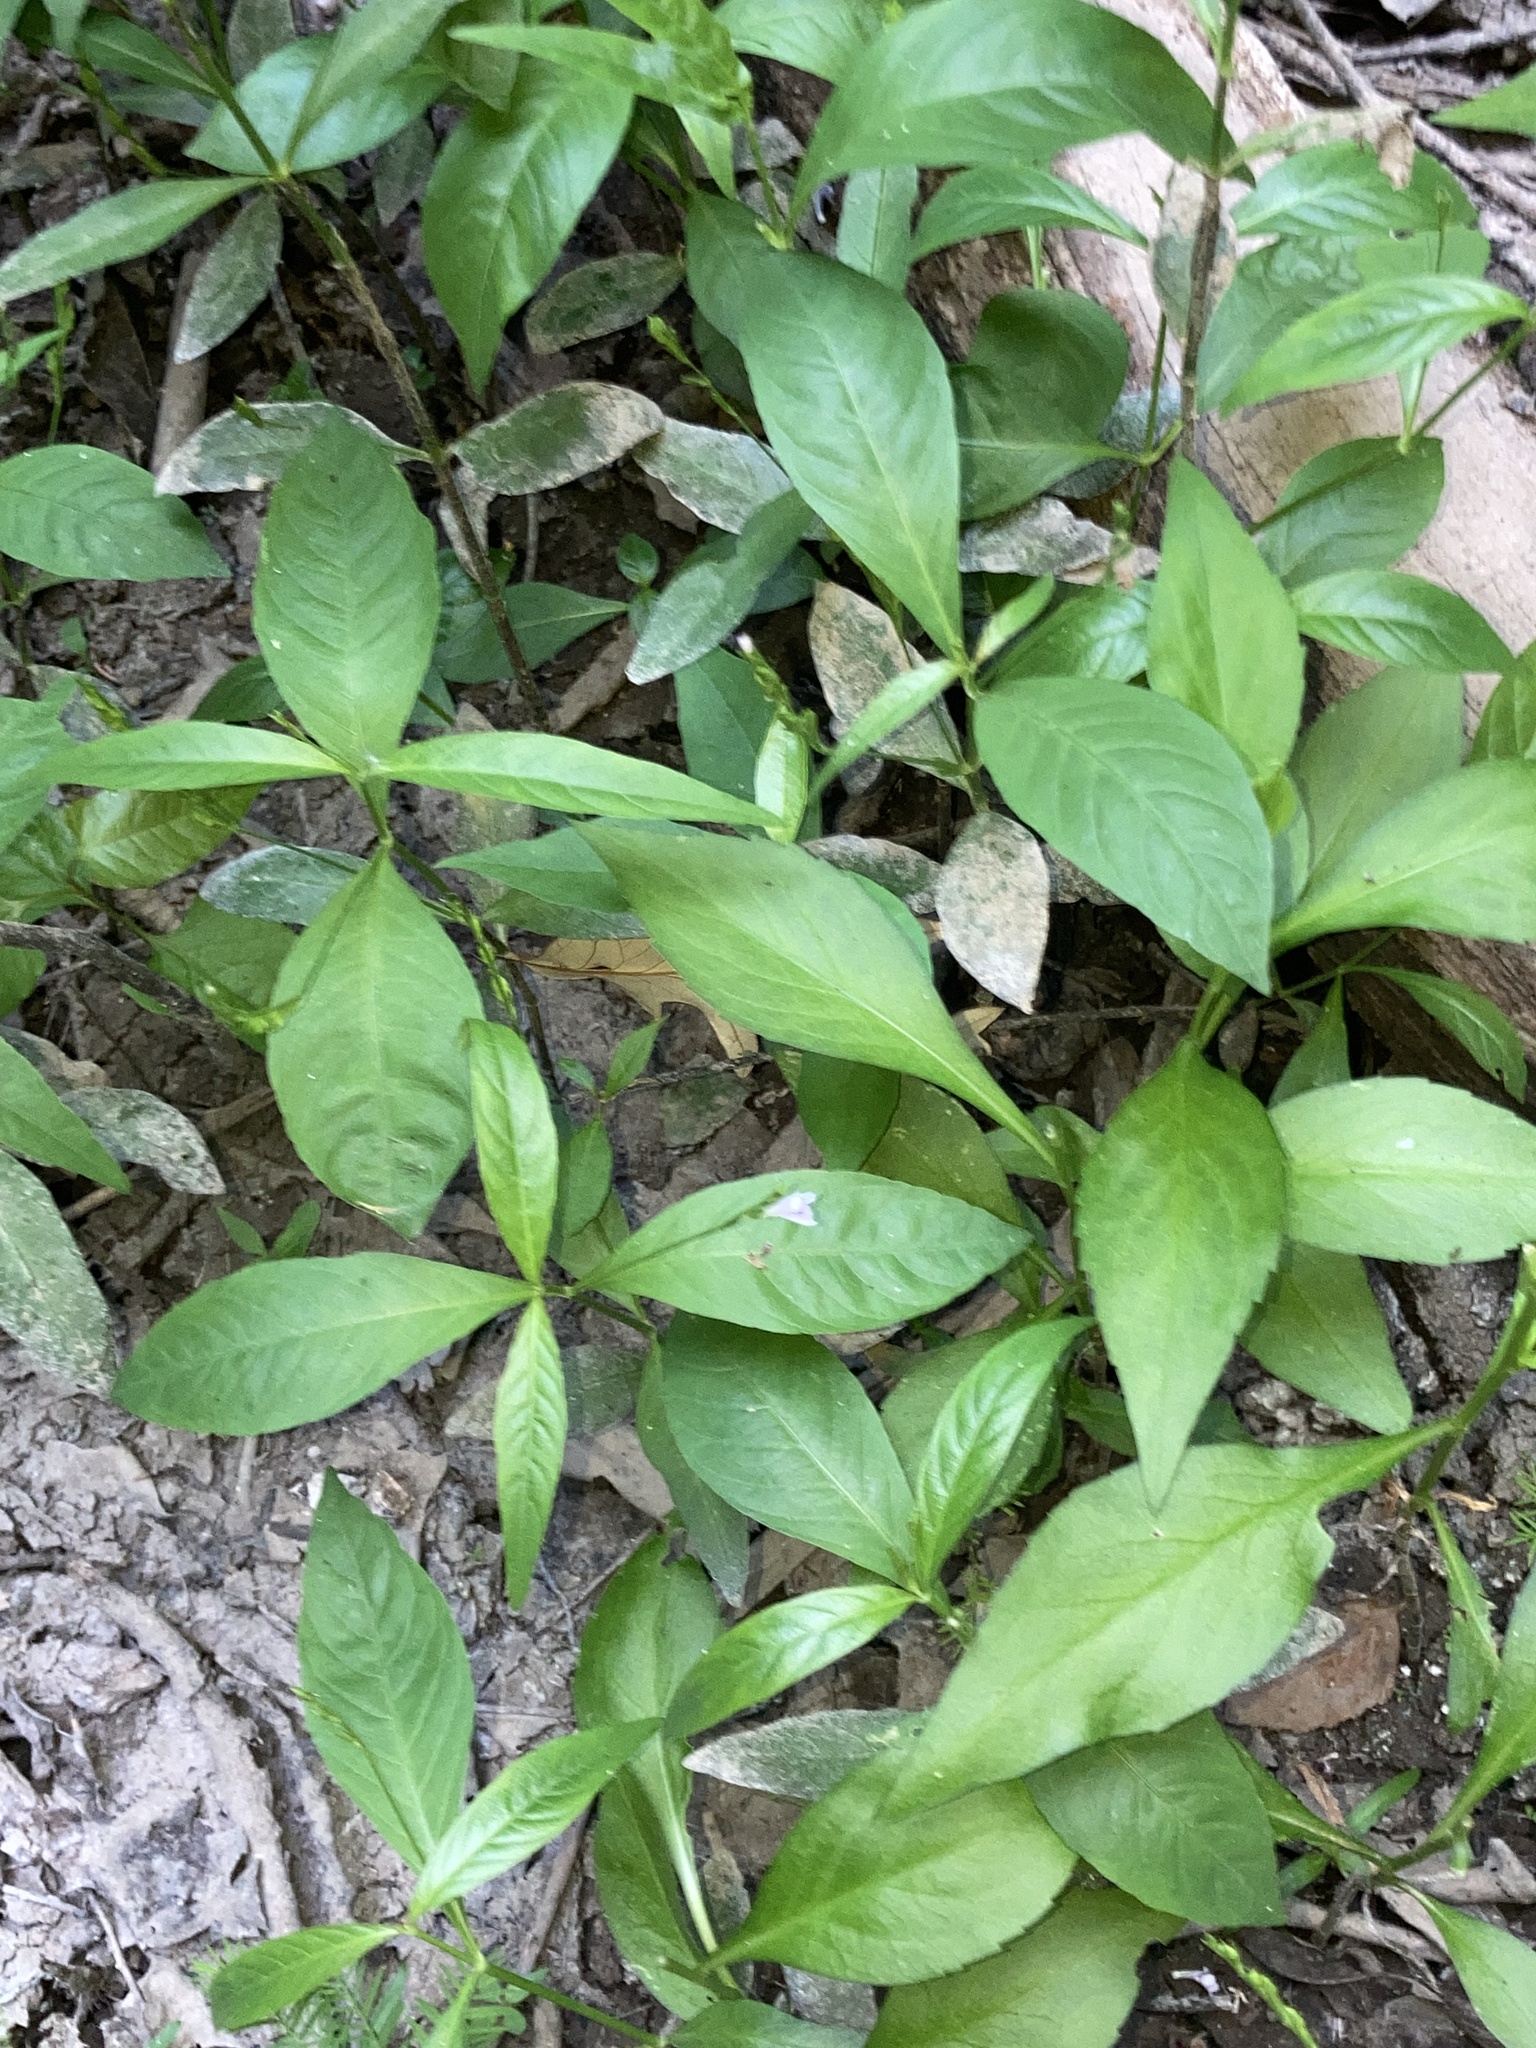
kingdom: Plantae
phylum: Tracheophyta
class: Magnoliopsida
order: Lamiales
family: Acanthaceae
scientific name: Acanthaceae
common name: Acanthaceae
